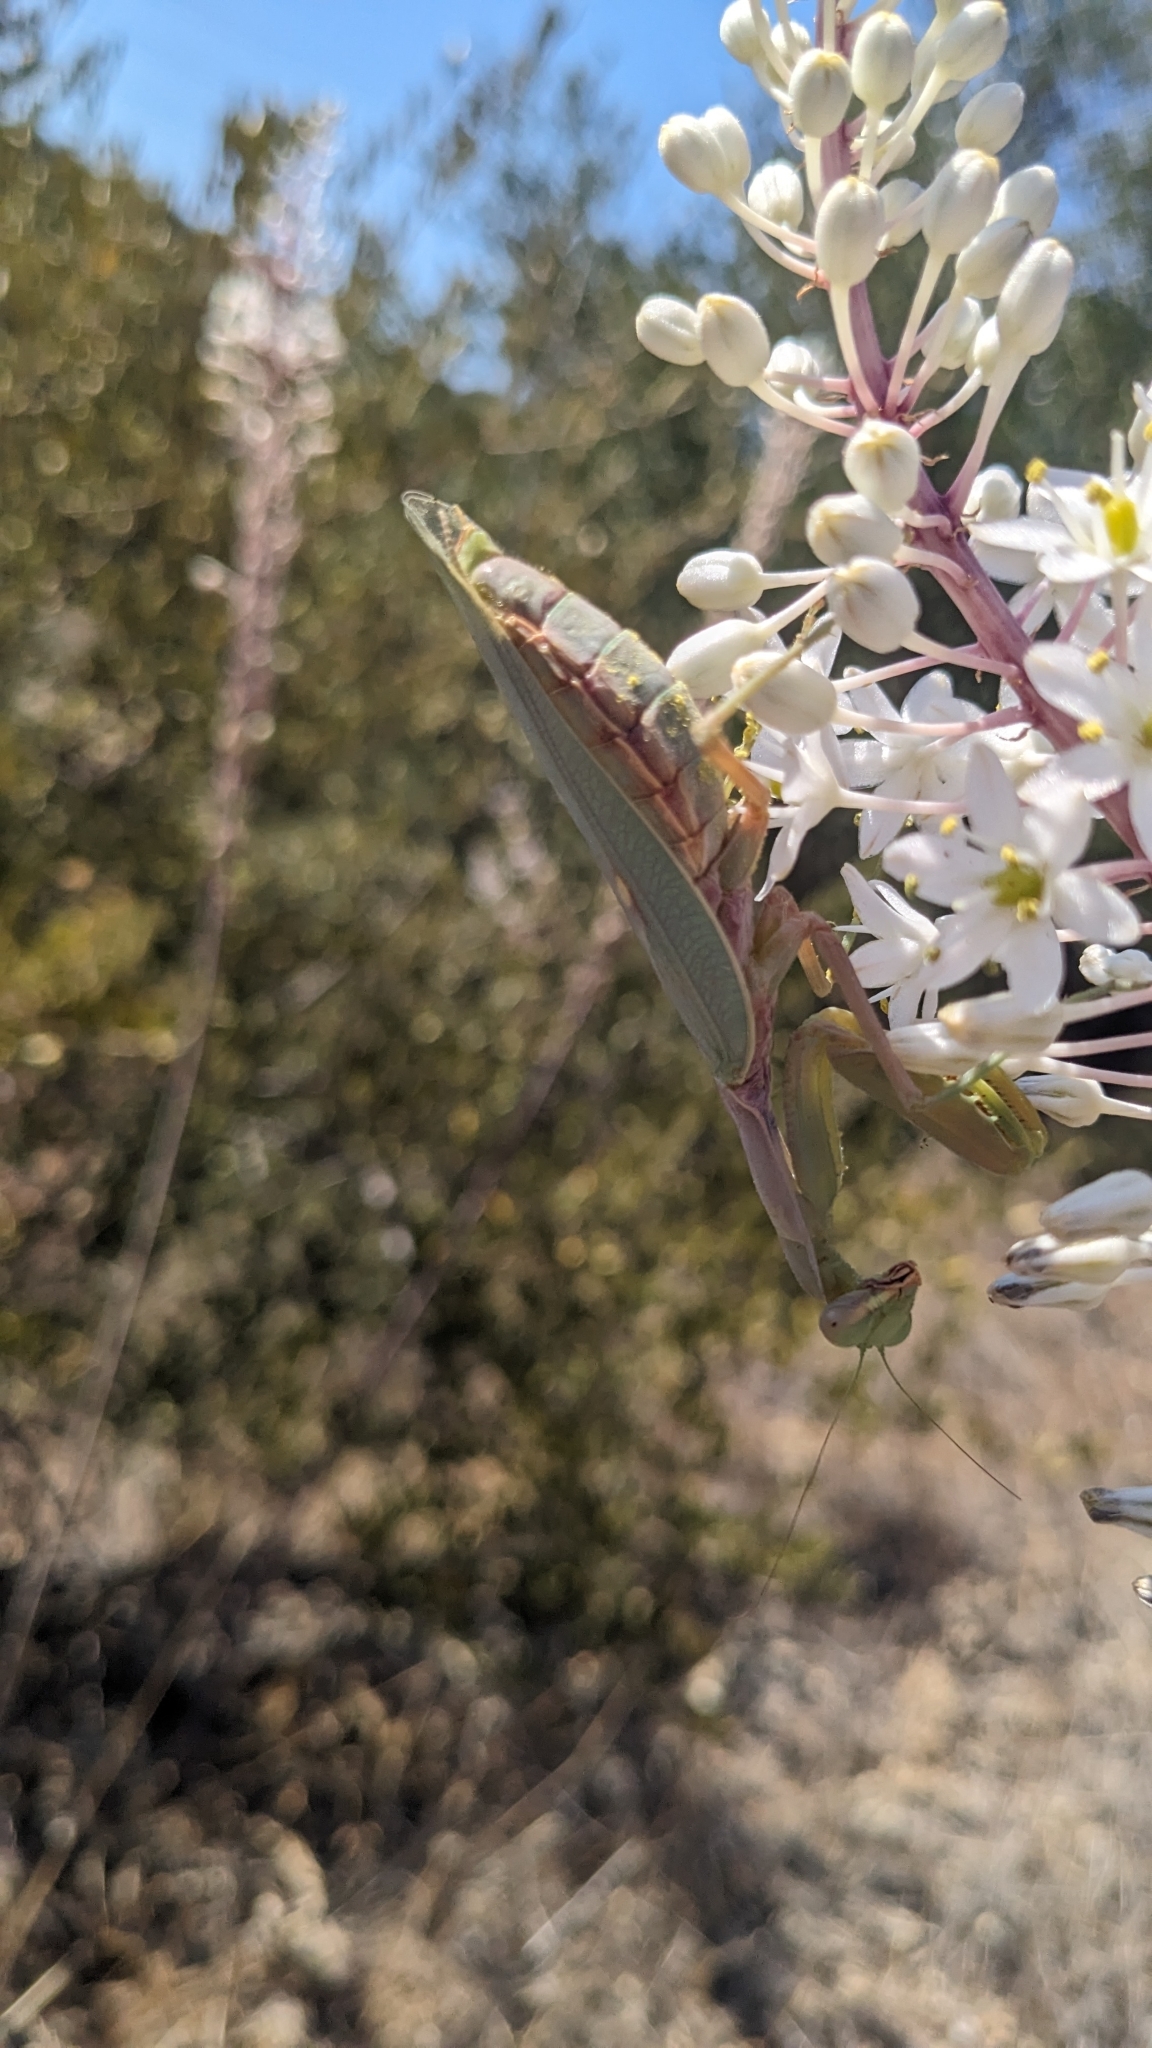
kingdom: Animalia
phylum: Arthropoda
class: Insecta
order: Mantodea
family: Mantidae
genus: Hierodula
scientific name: Hierodula transcaucasica
